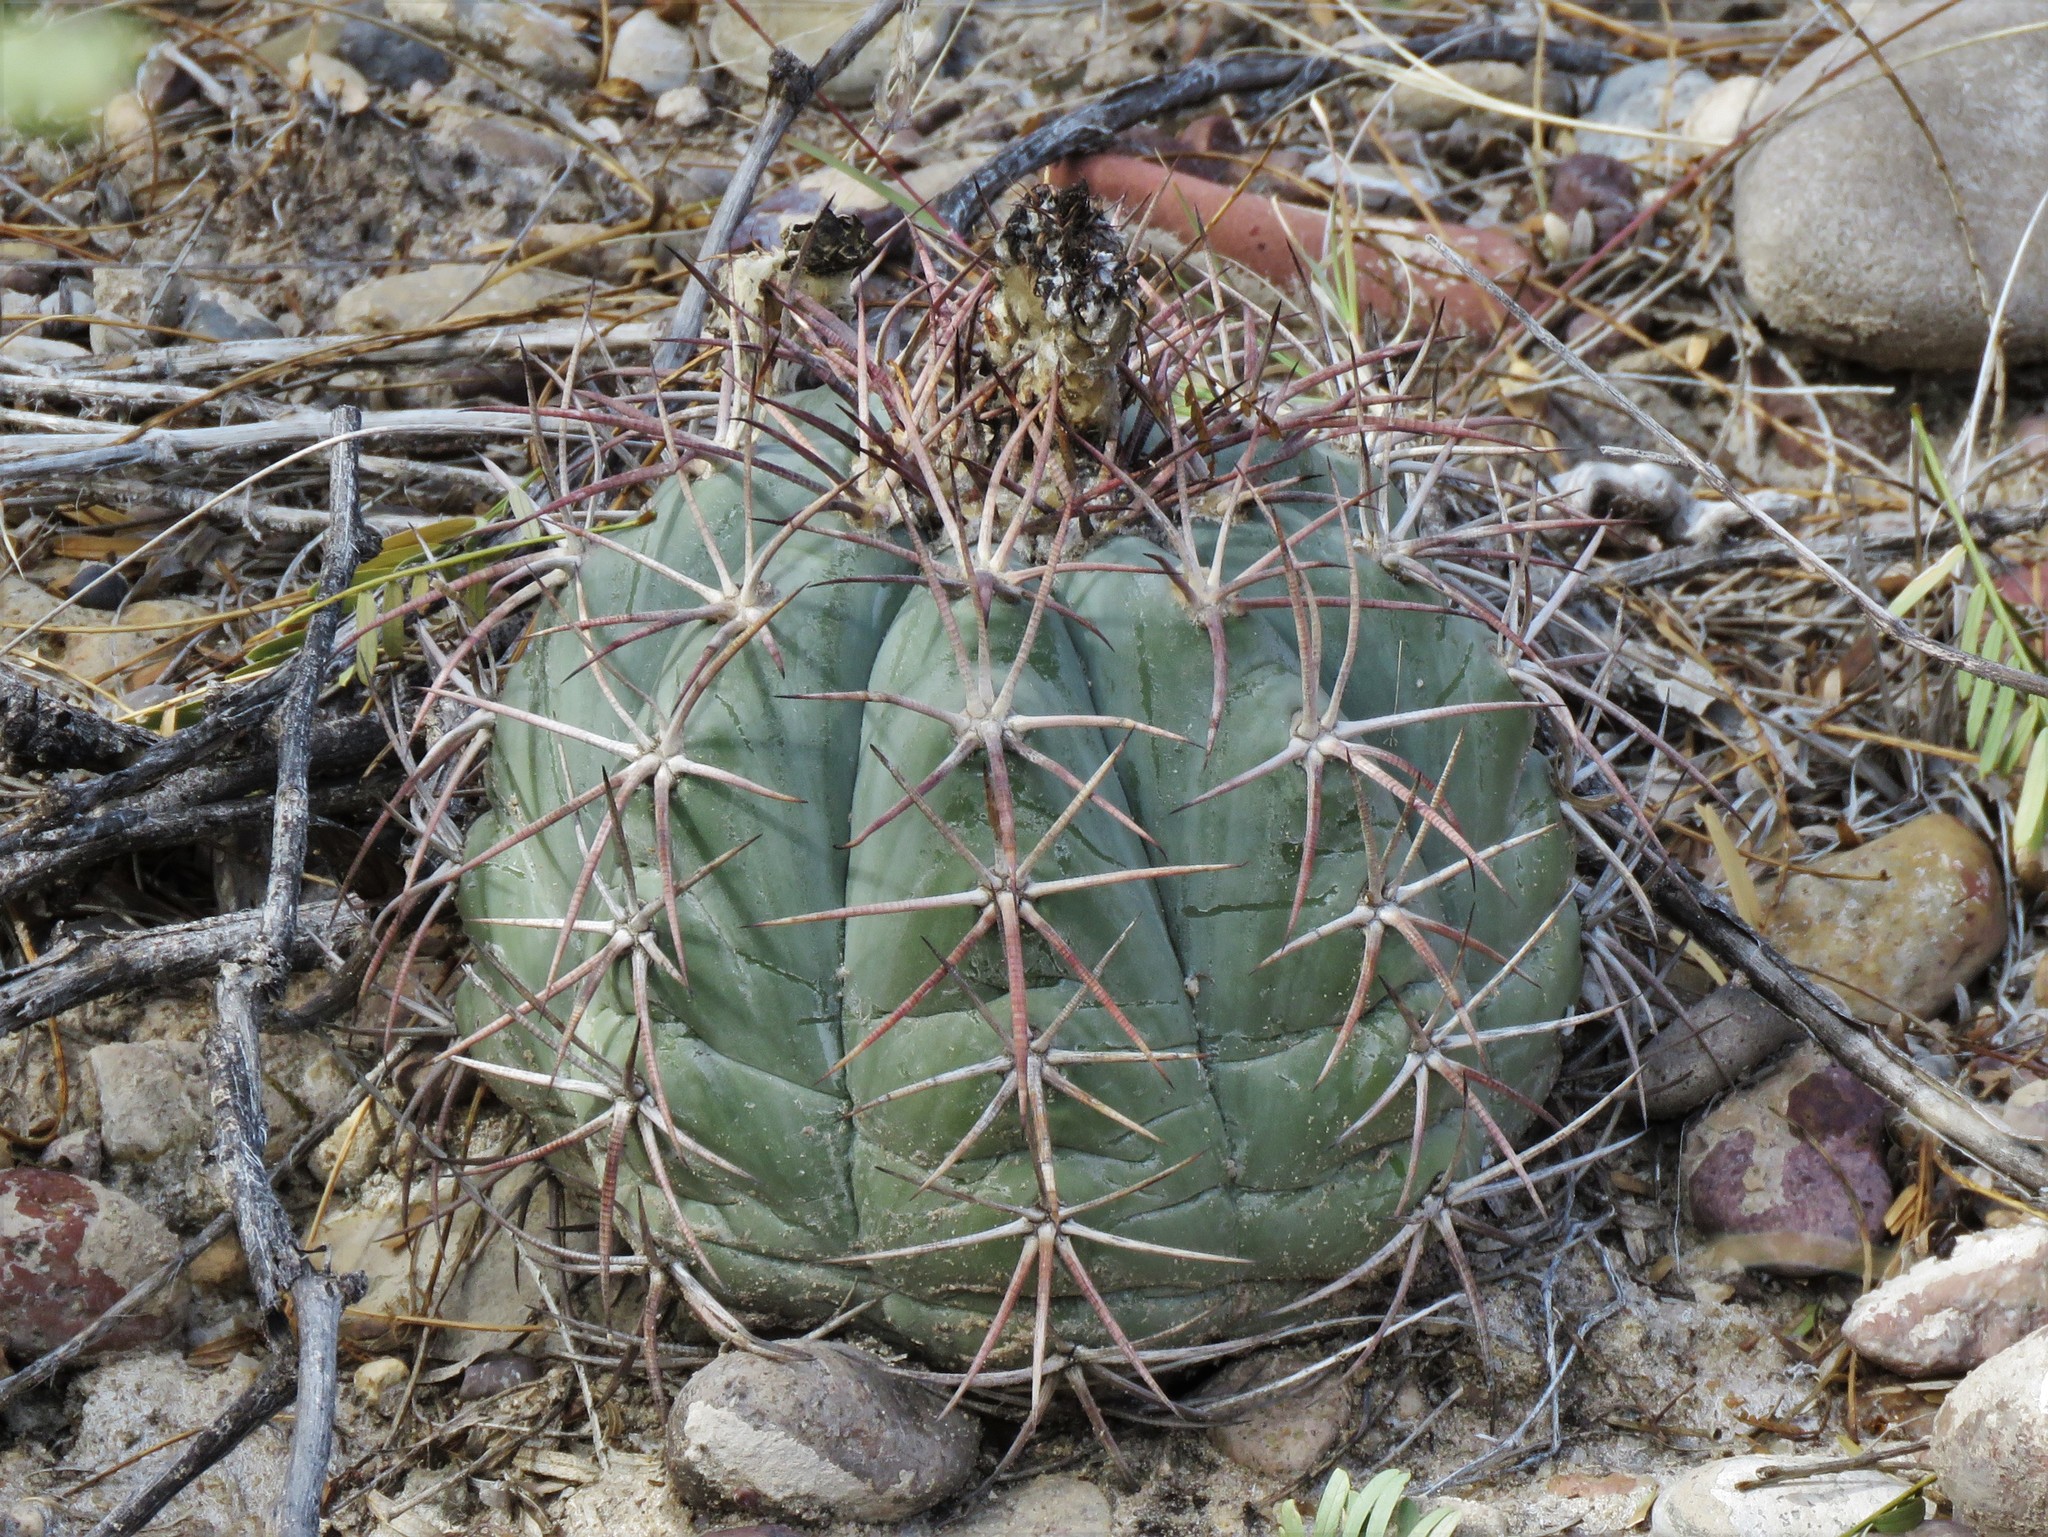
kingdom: Plantae
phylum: Tracheophyta
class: Magnoliopsida
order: Caryophyllales
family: Cactaceae
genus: Echinocactus
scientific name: Echinocactus horizonthalonius
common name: Devilshead
